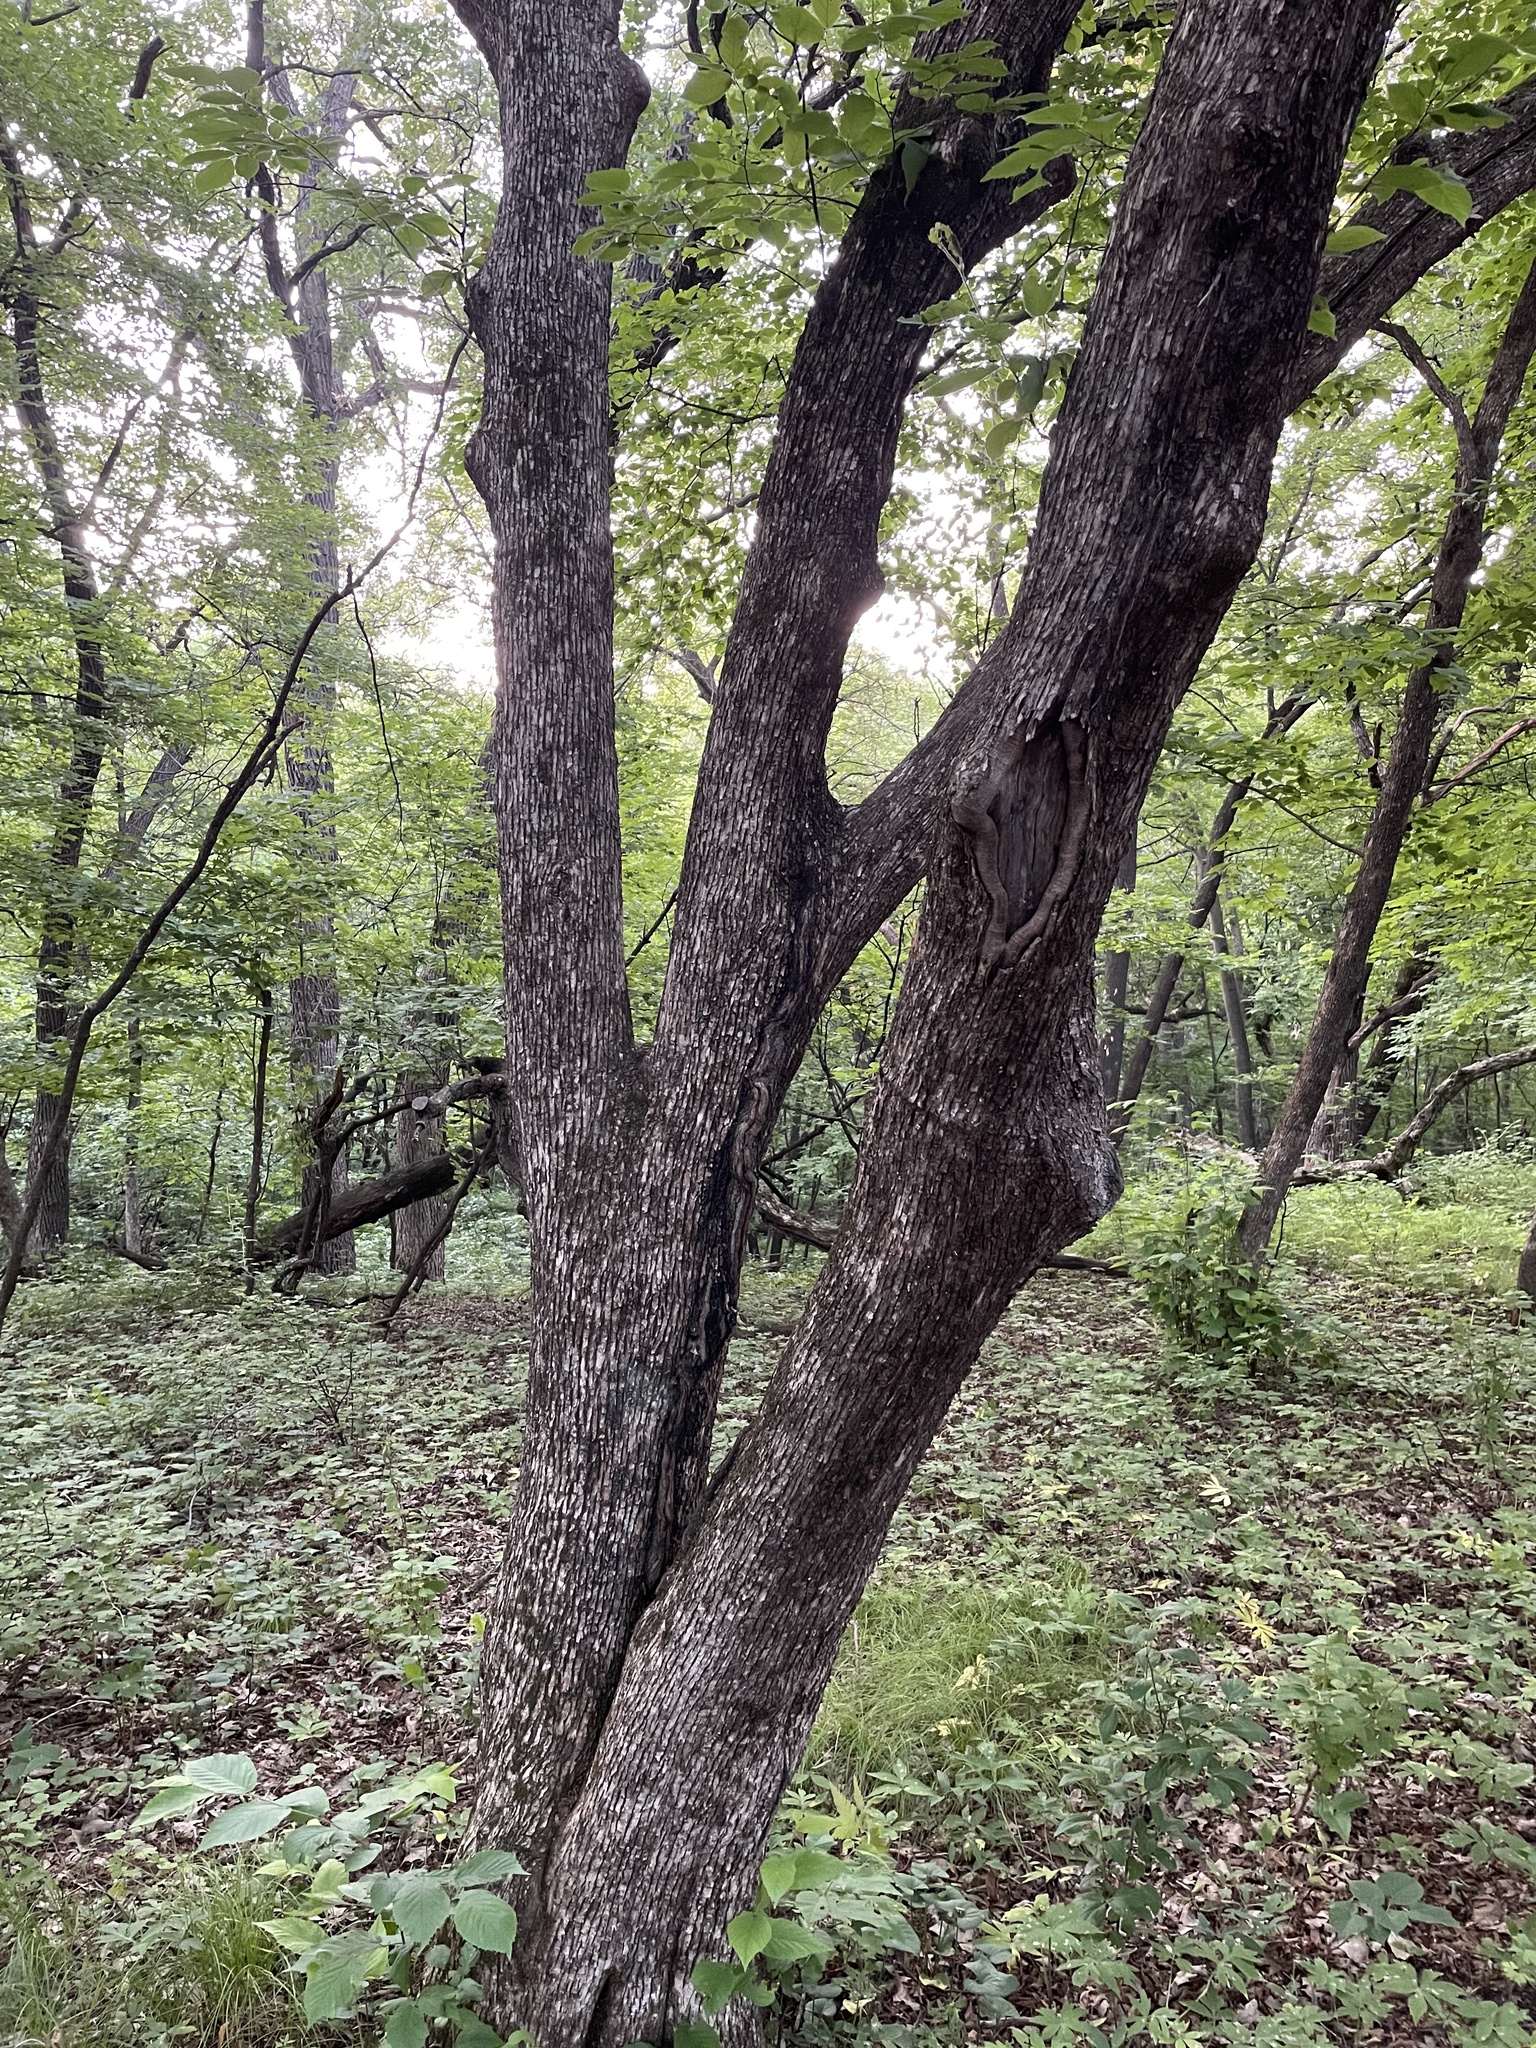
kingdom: Plantae
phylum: Tracheophyta
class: Magnoliopsida
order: Fagales
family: Betulaceae
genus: Ostrya
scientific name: Ostrya virginiana
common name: Ironwood
